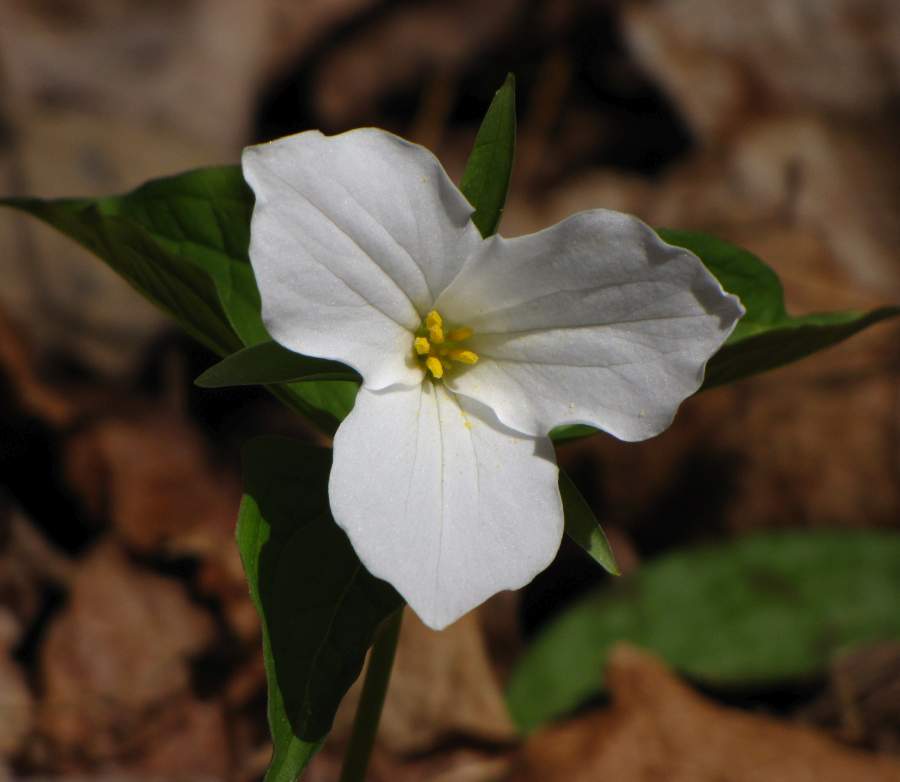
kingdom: Plantae
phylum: Tracheophyta
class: Liliopsida
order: Liliales
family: Melanthiaceae
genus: Trillium
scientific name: Trillium grandiflorum
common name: Great white trillium
